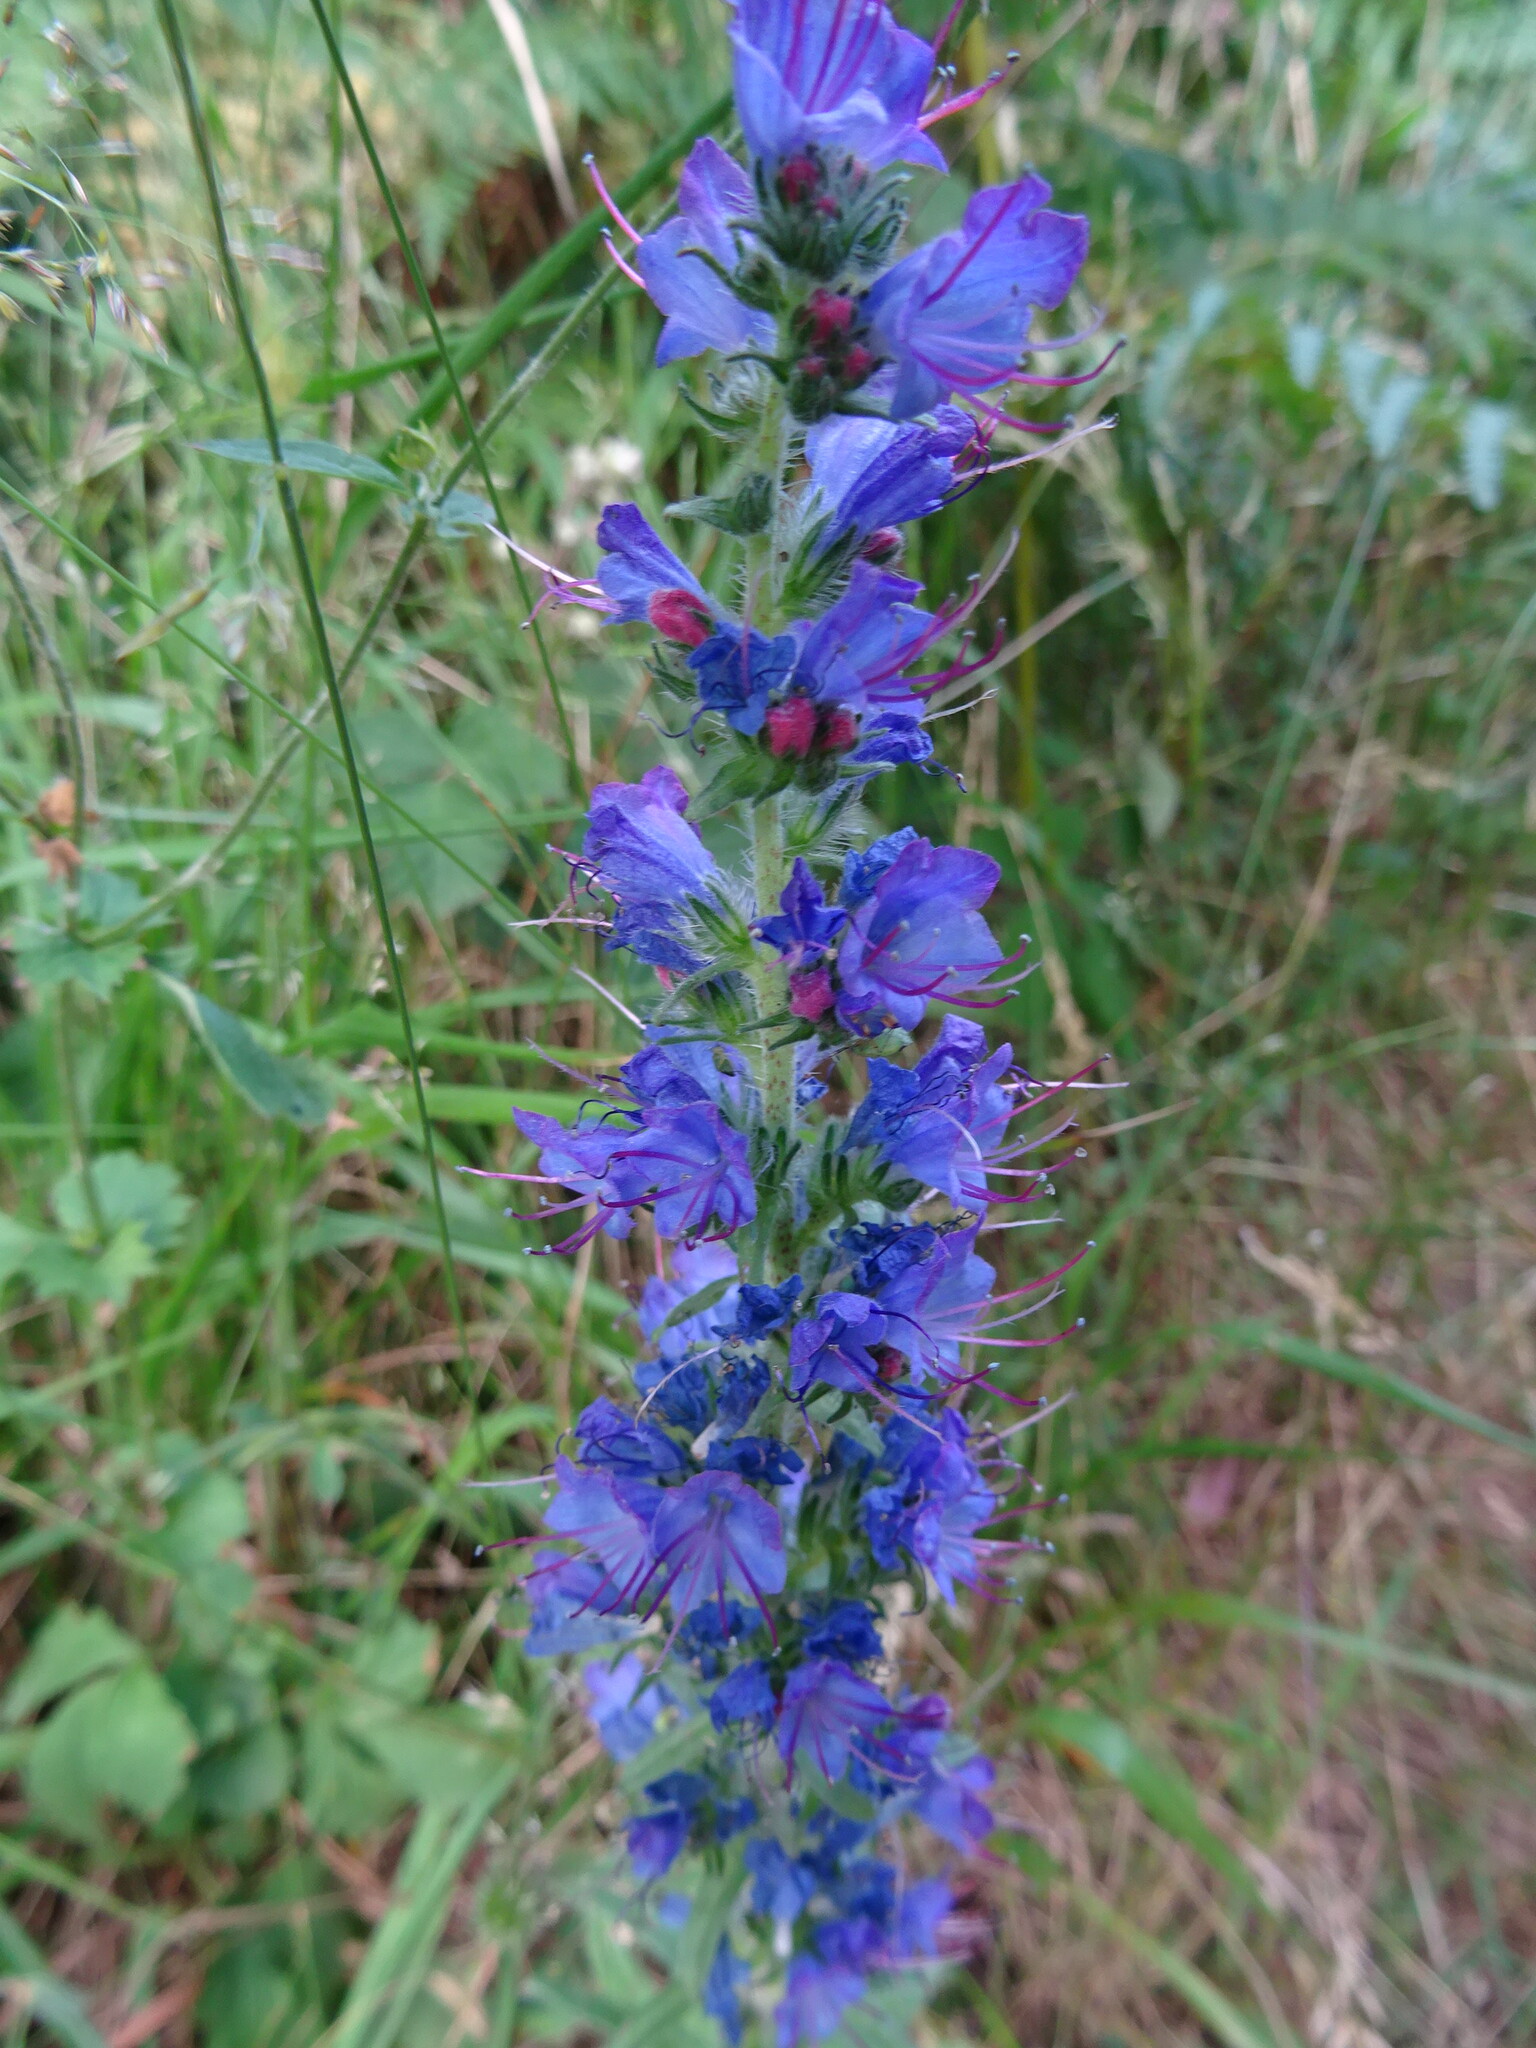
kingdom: Plantae
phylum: Tracheophyta
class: Magnoliopsida
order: Boraginales
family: Boraginaceae
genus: Echium
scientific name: Echium vulgare
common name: Common viper's bugloss
